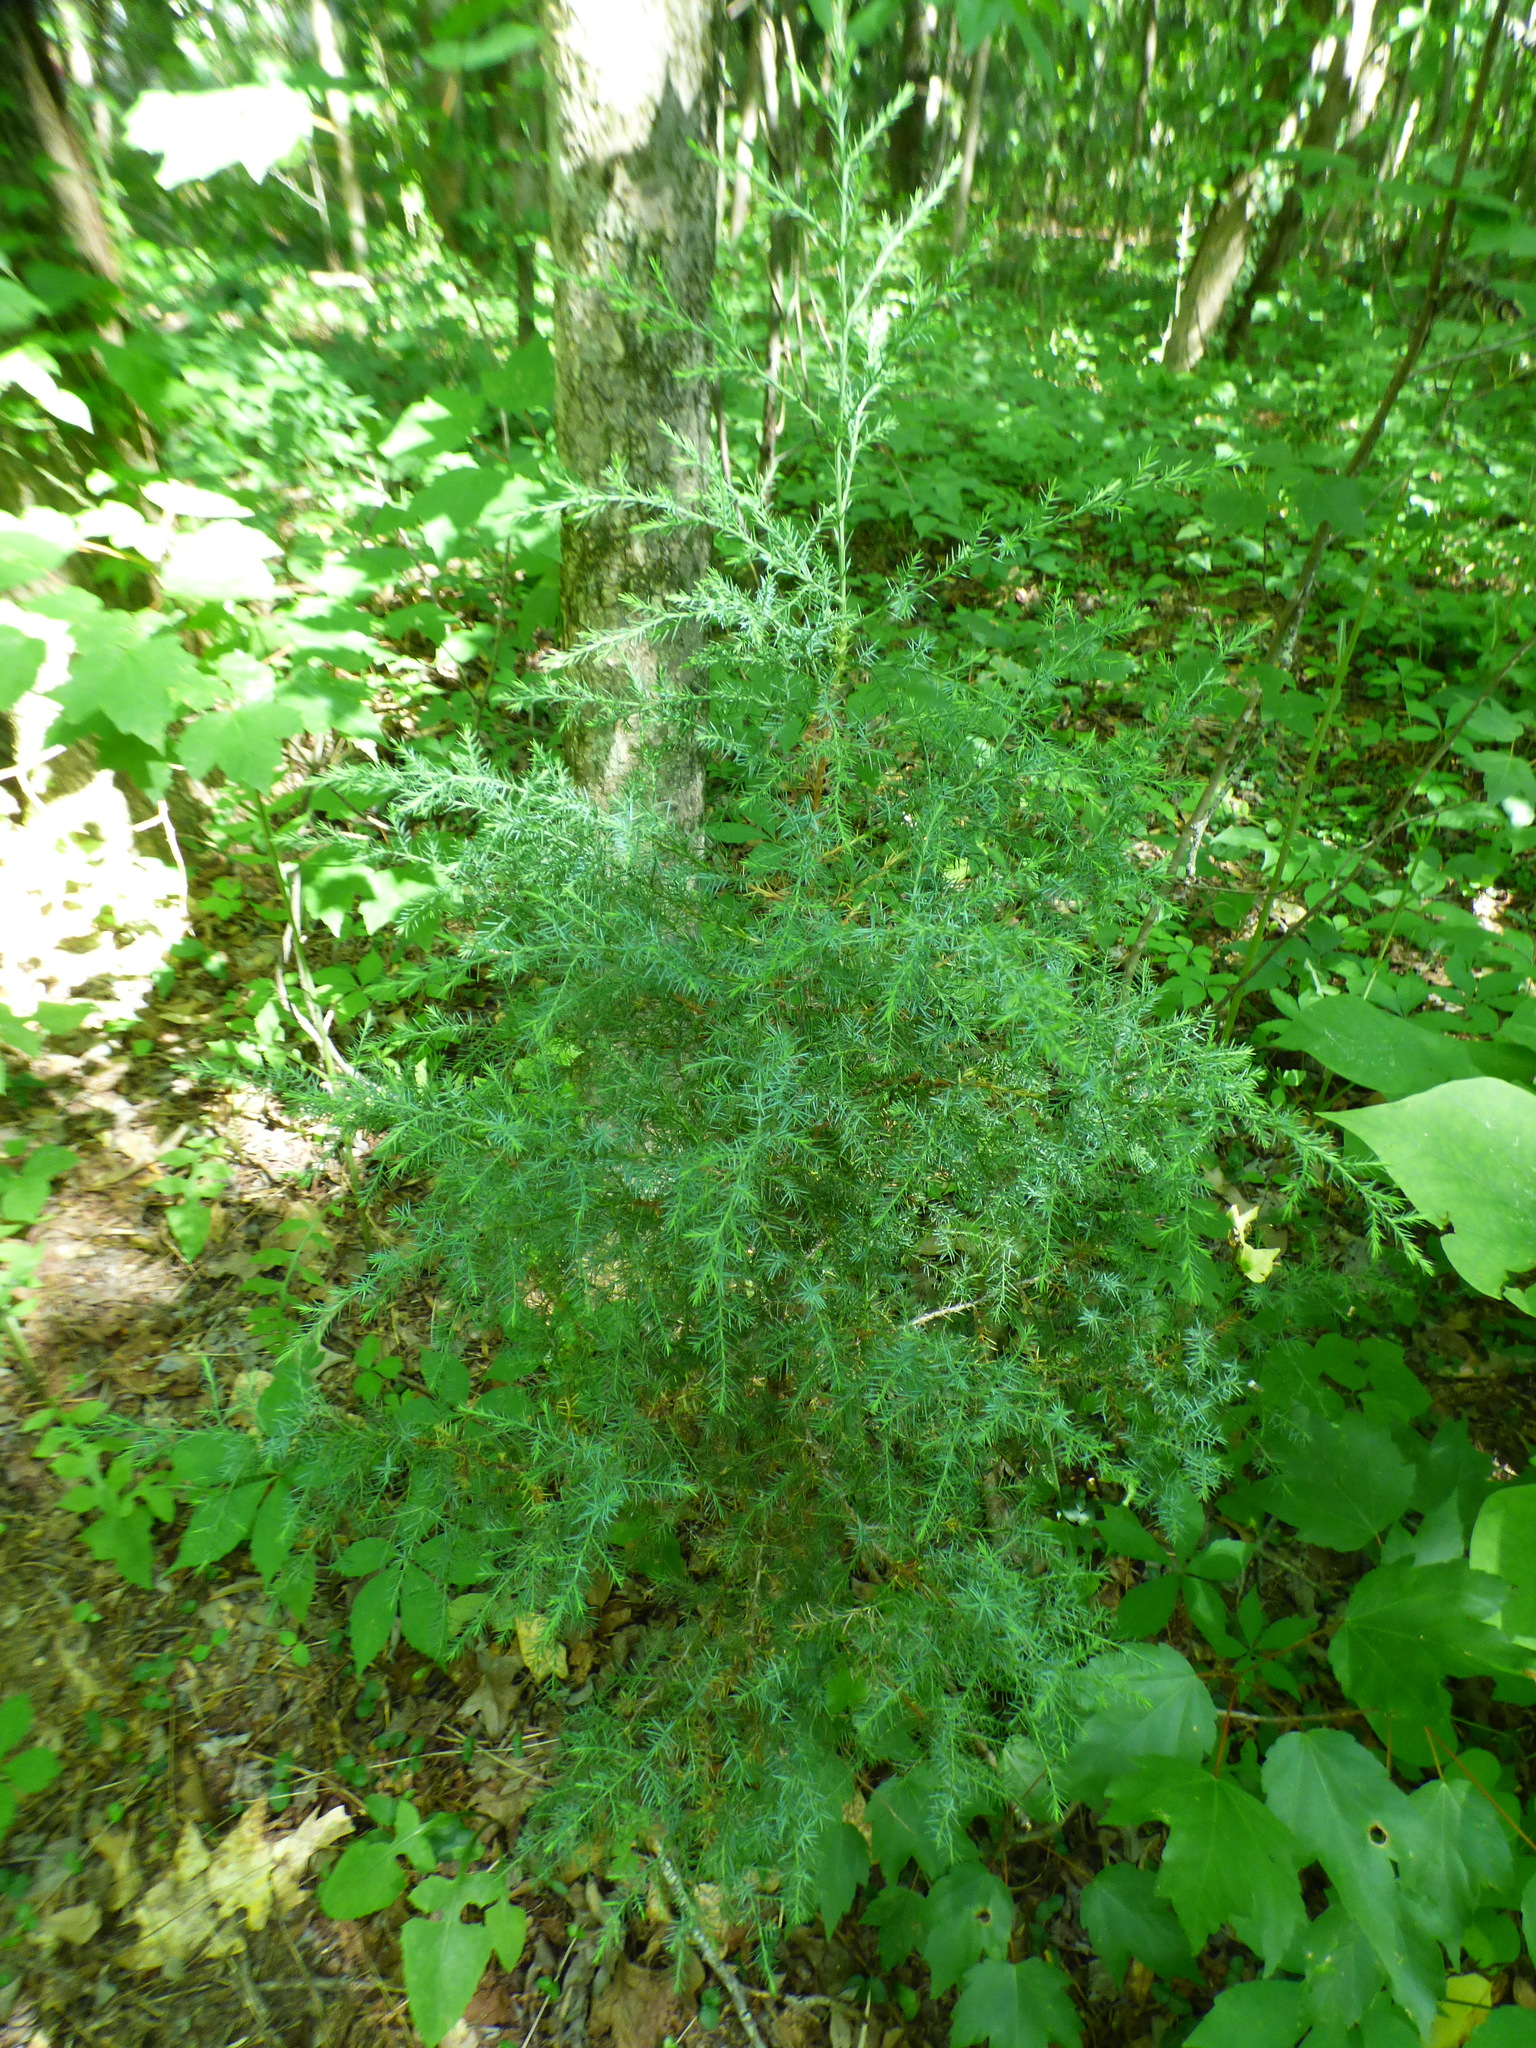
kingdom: Plantae
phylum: Tracheophyta
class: Pinopsida
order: Pinales
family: Cupressaceae
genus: Juniperus
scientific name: Juniperus virginiana
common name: Red juniper
